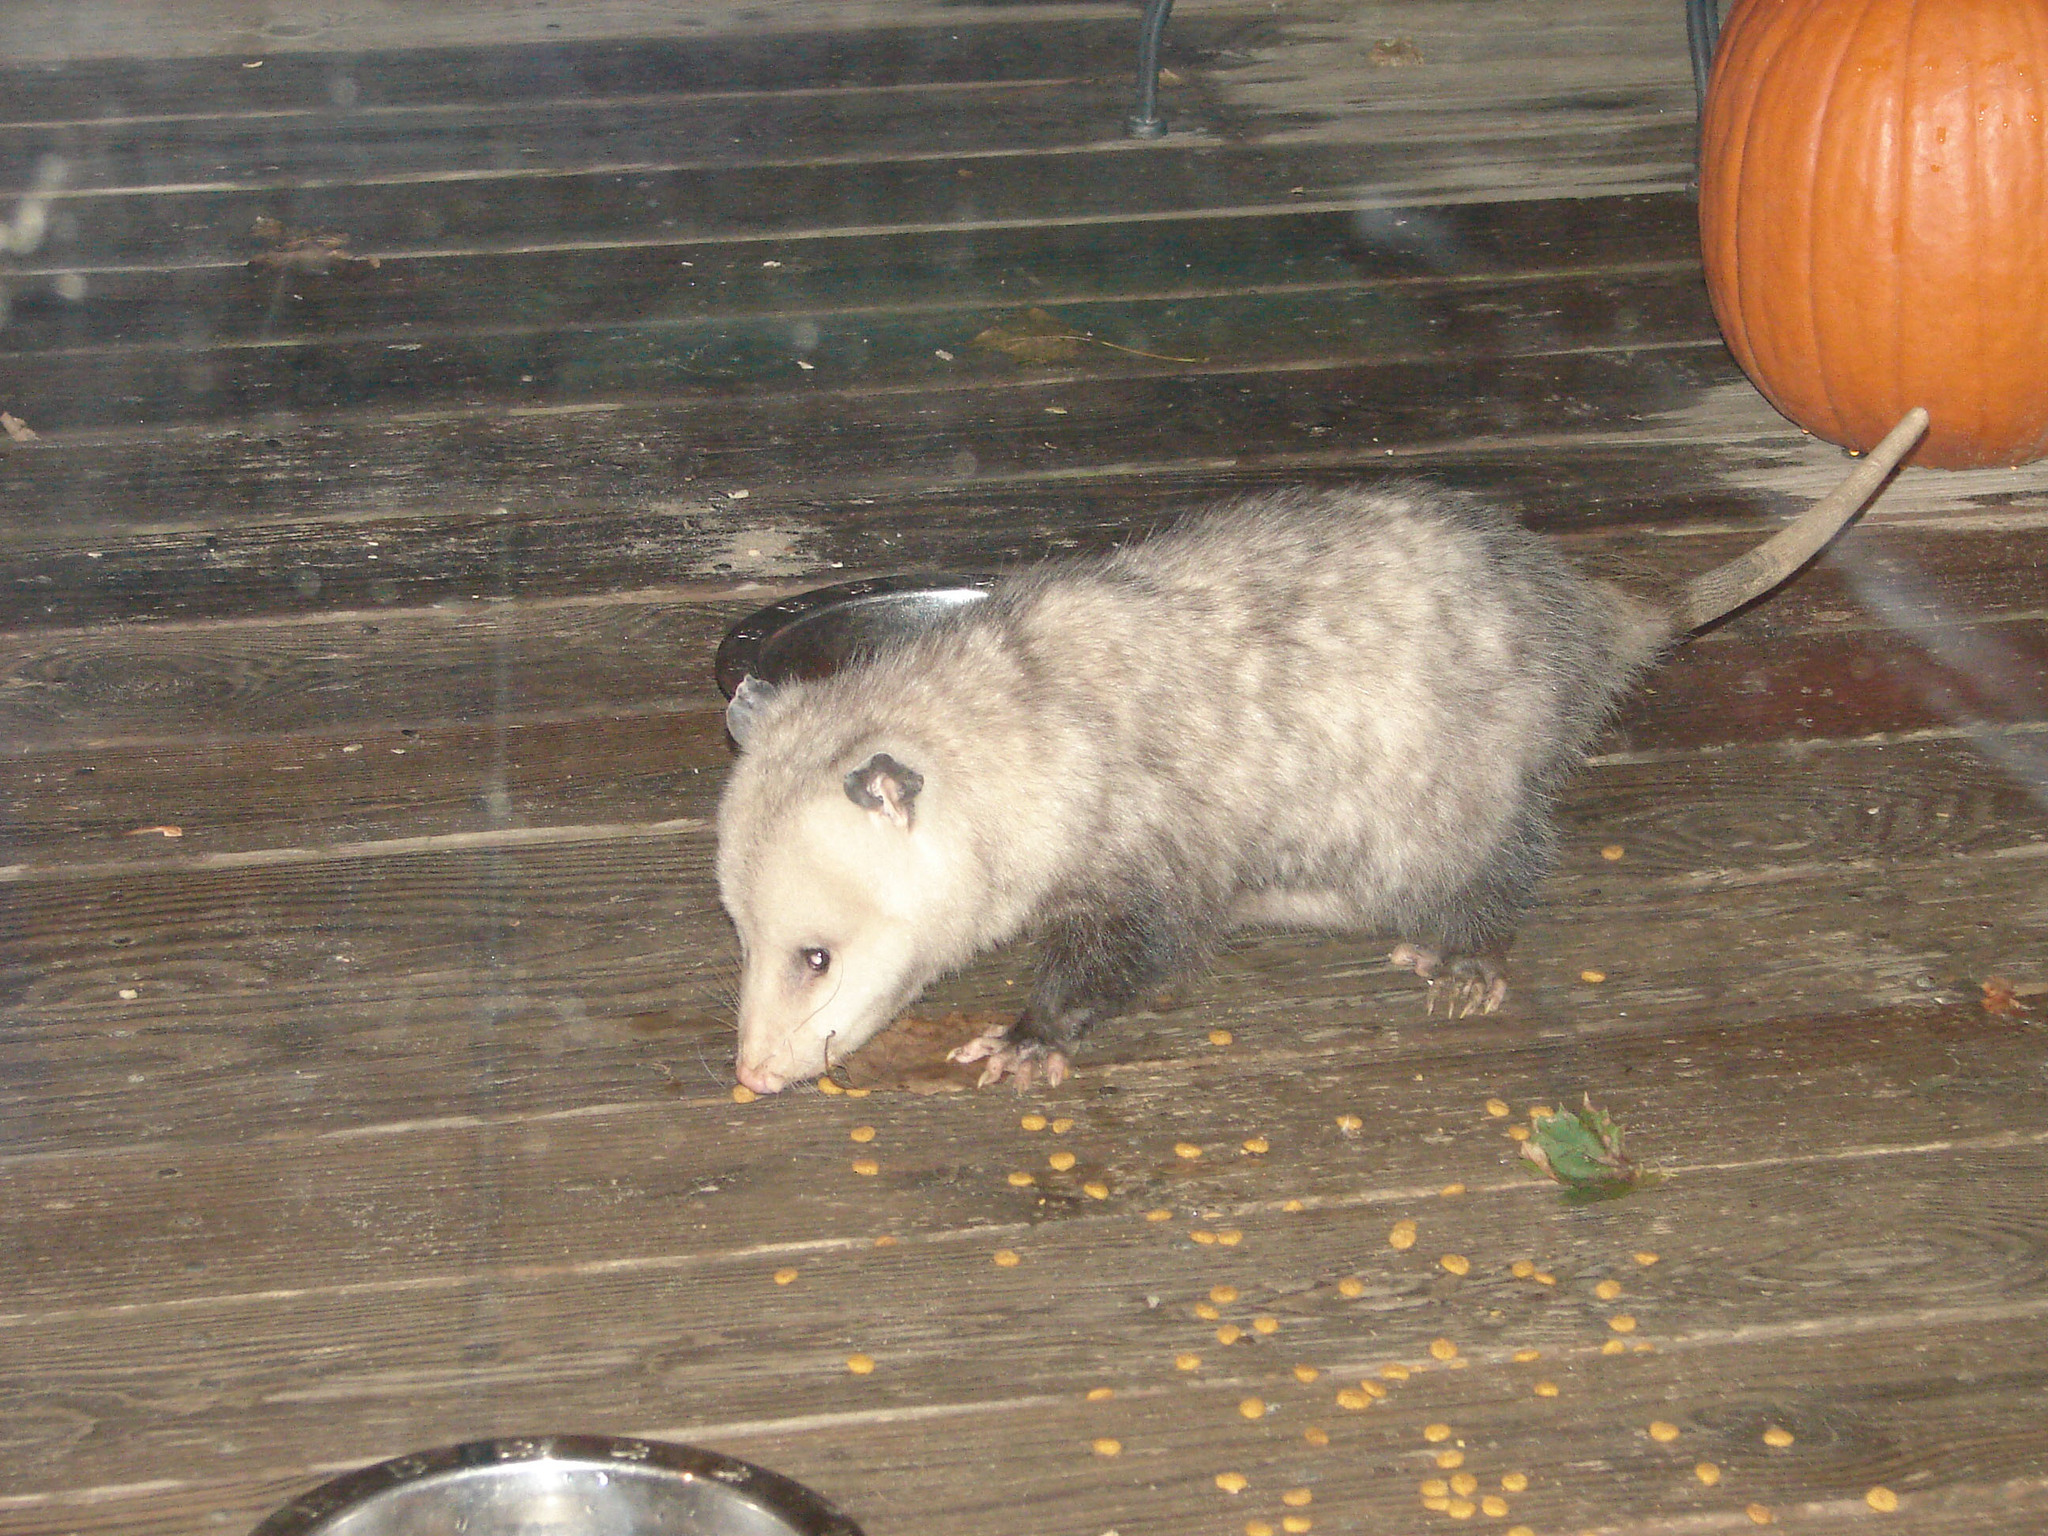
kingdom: Animalia
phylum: Chordata
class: Mammalia
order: Didelphimorphia
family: Didelphidae
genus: Didelphis
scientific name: Didelphis virginiana
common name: Virginia opossum
